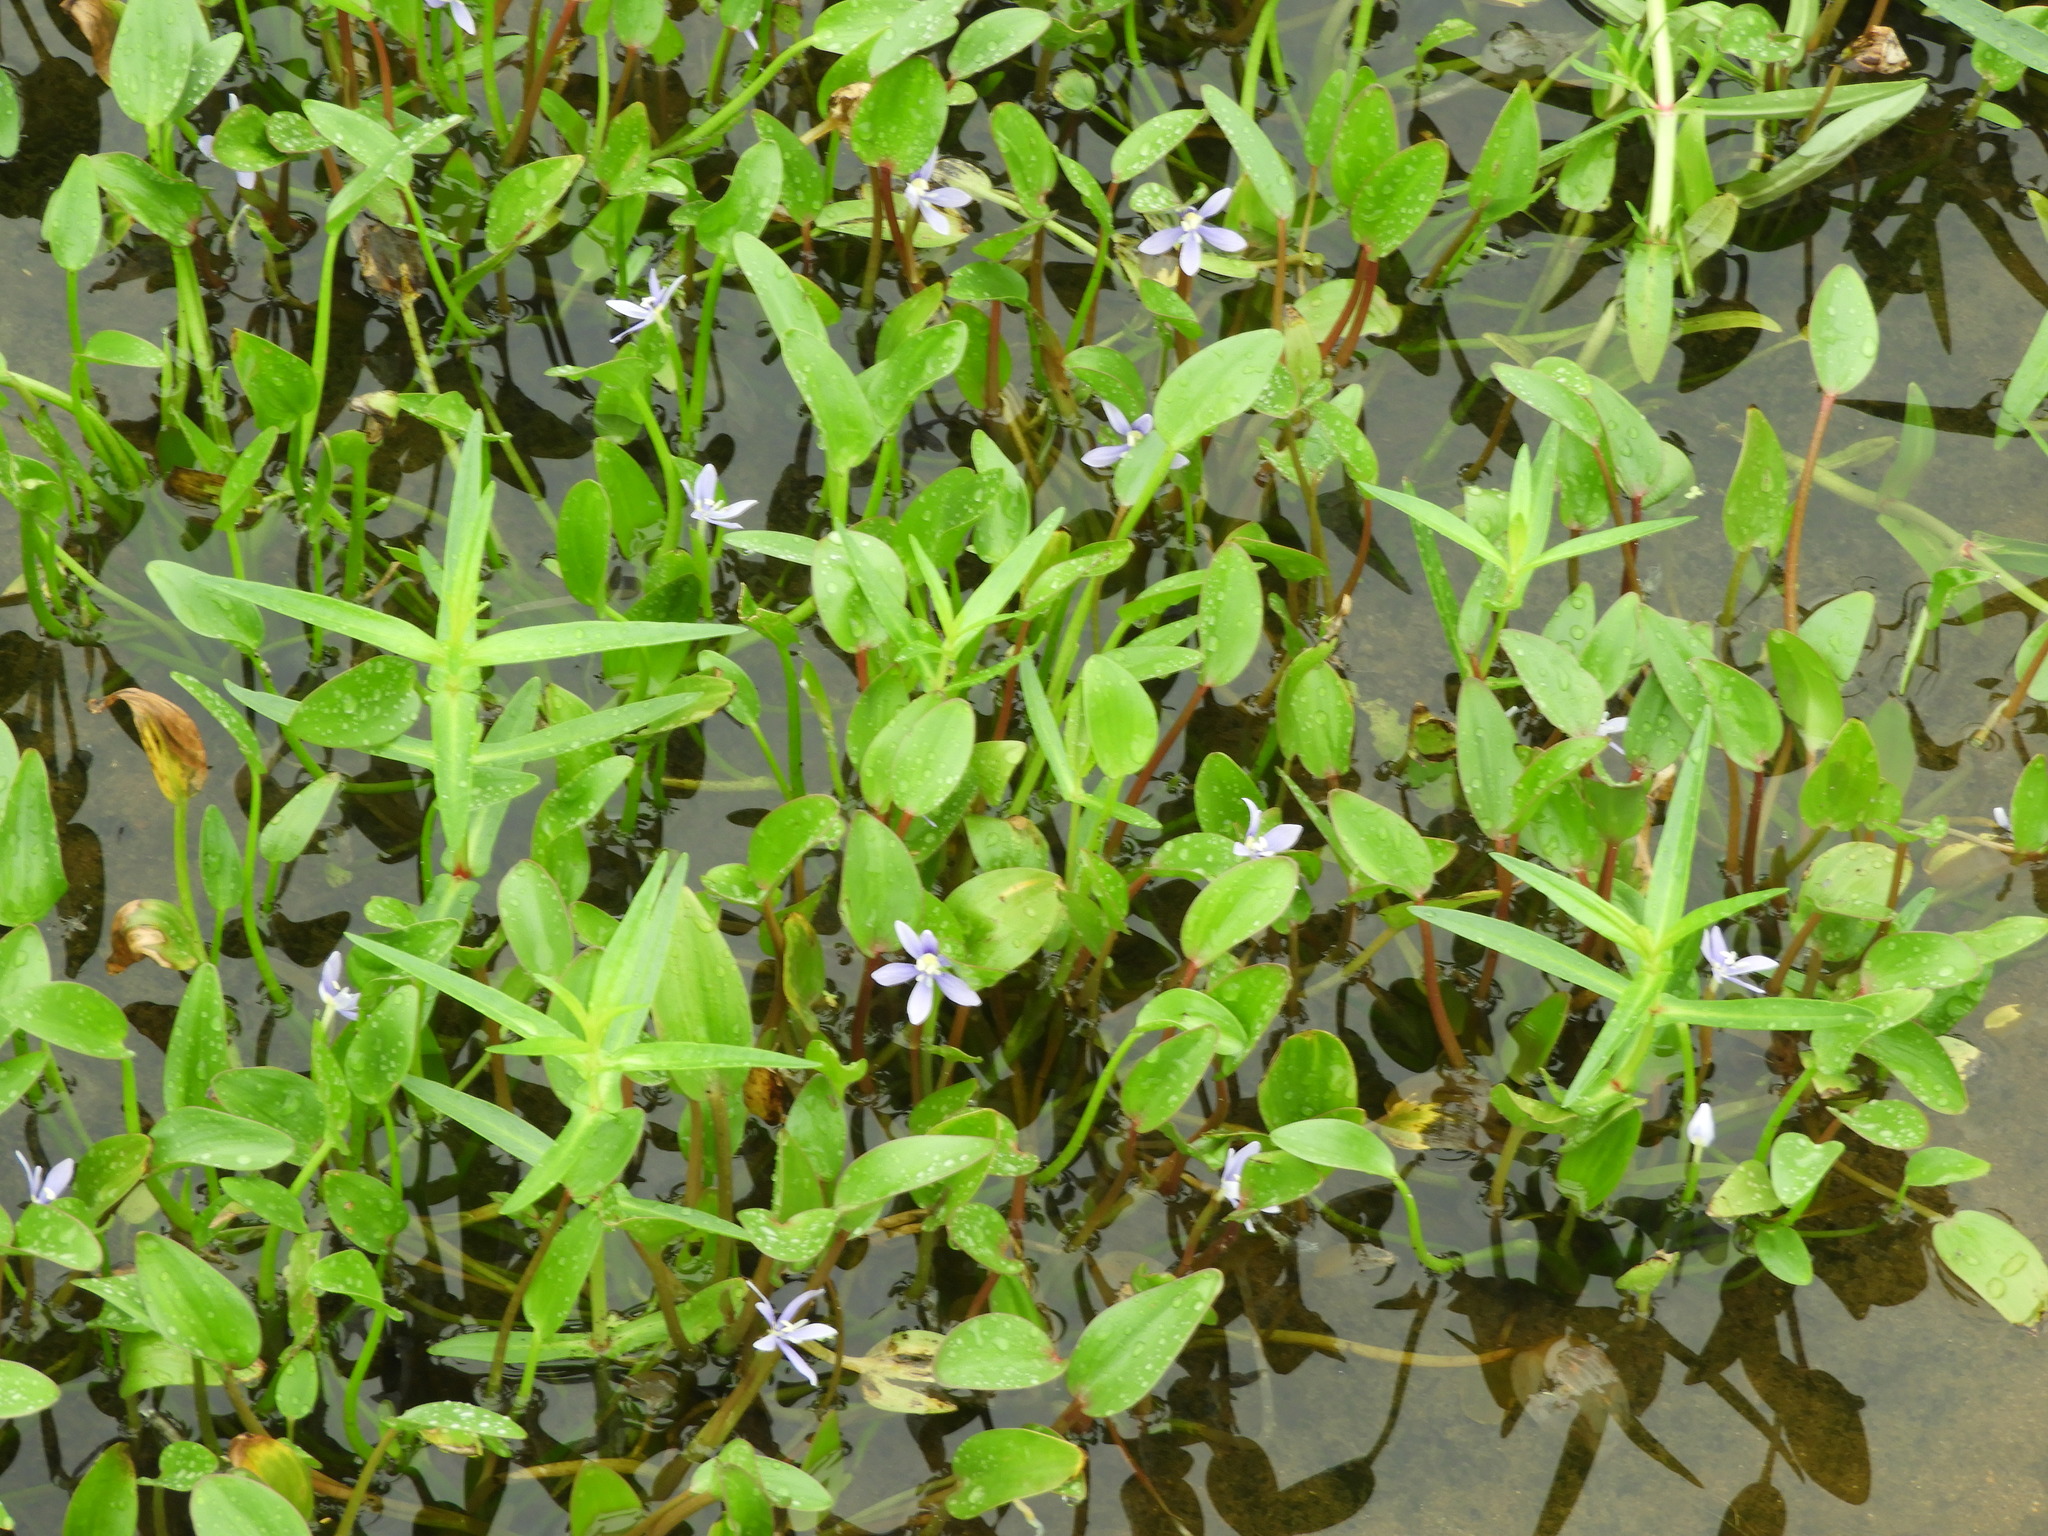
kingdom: Plantae
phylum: Tracheophyta
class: Liliopsida
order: Commelinales
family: Pontederiaceae
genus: Heteranthera
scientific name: Heteranthera limosa
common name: Blue mud-plantain
